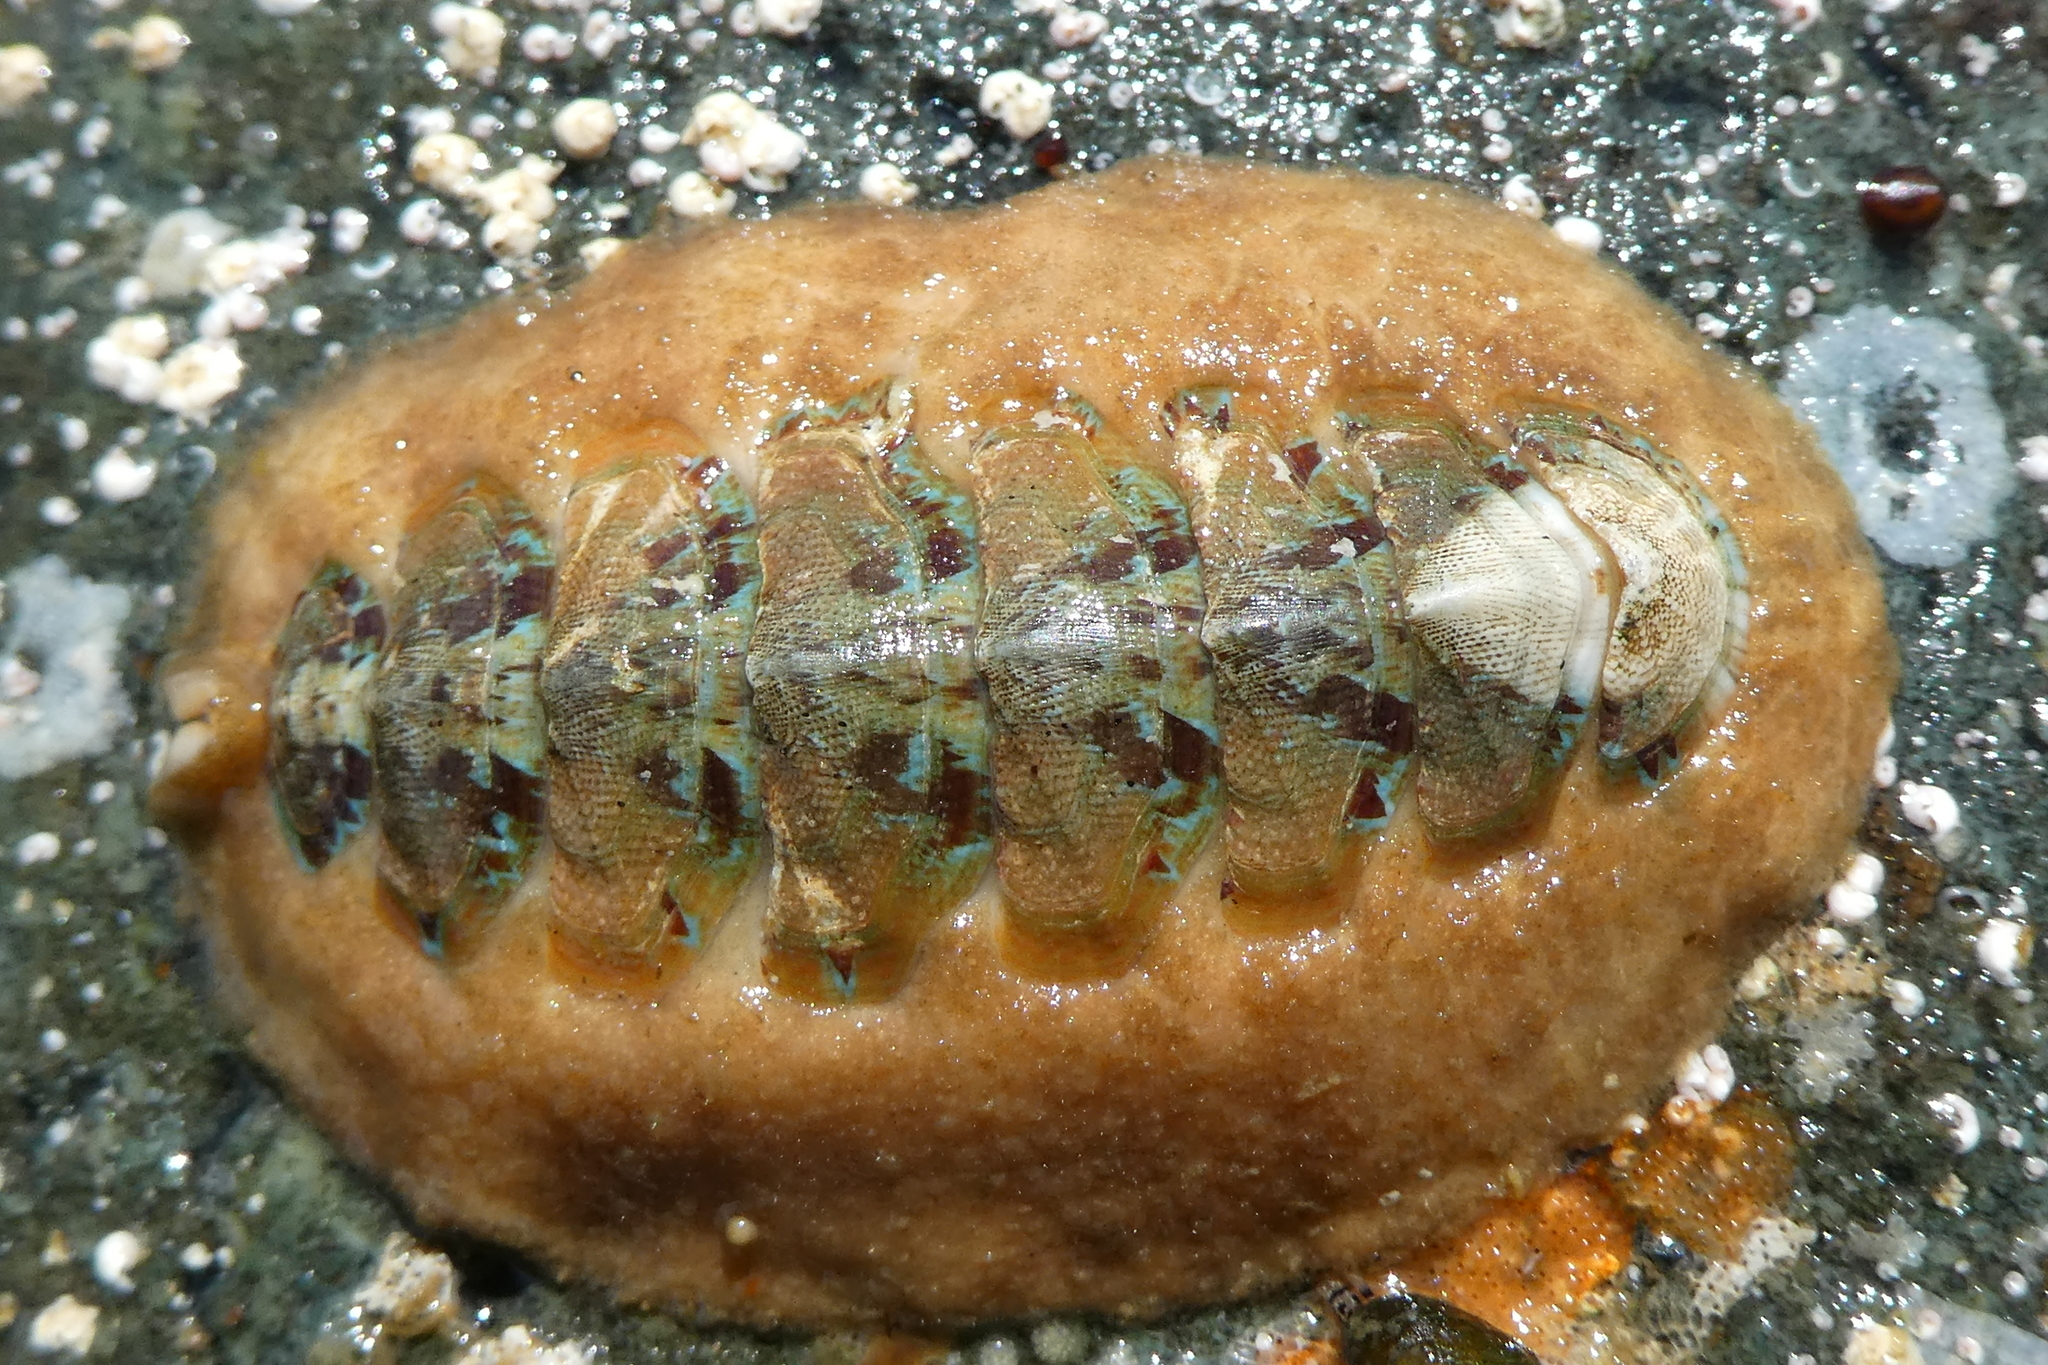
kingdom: Animalia
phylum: Mollusca
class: Polyplacophora
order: Chitonida
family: Mopaliidae
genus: Mopalia
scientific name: Mopalia spectabilis
